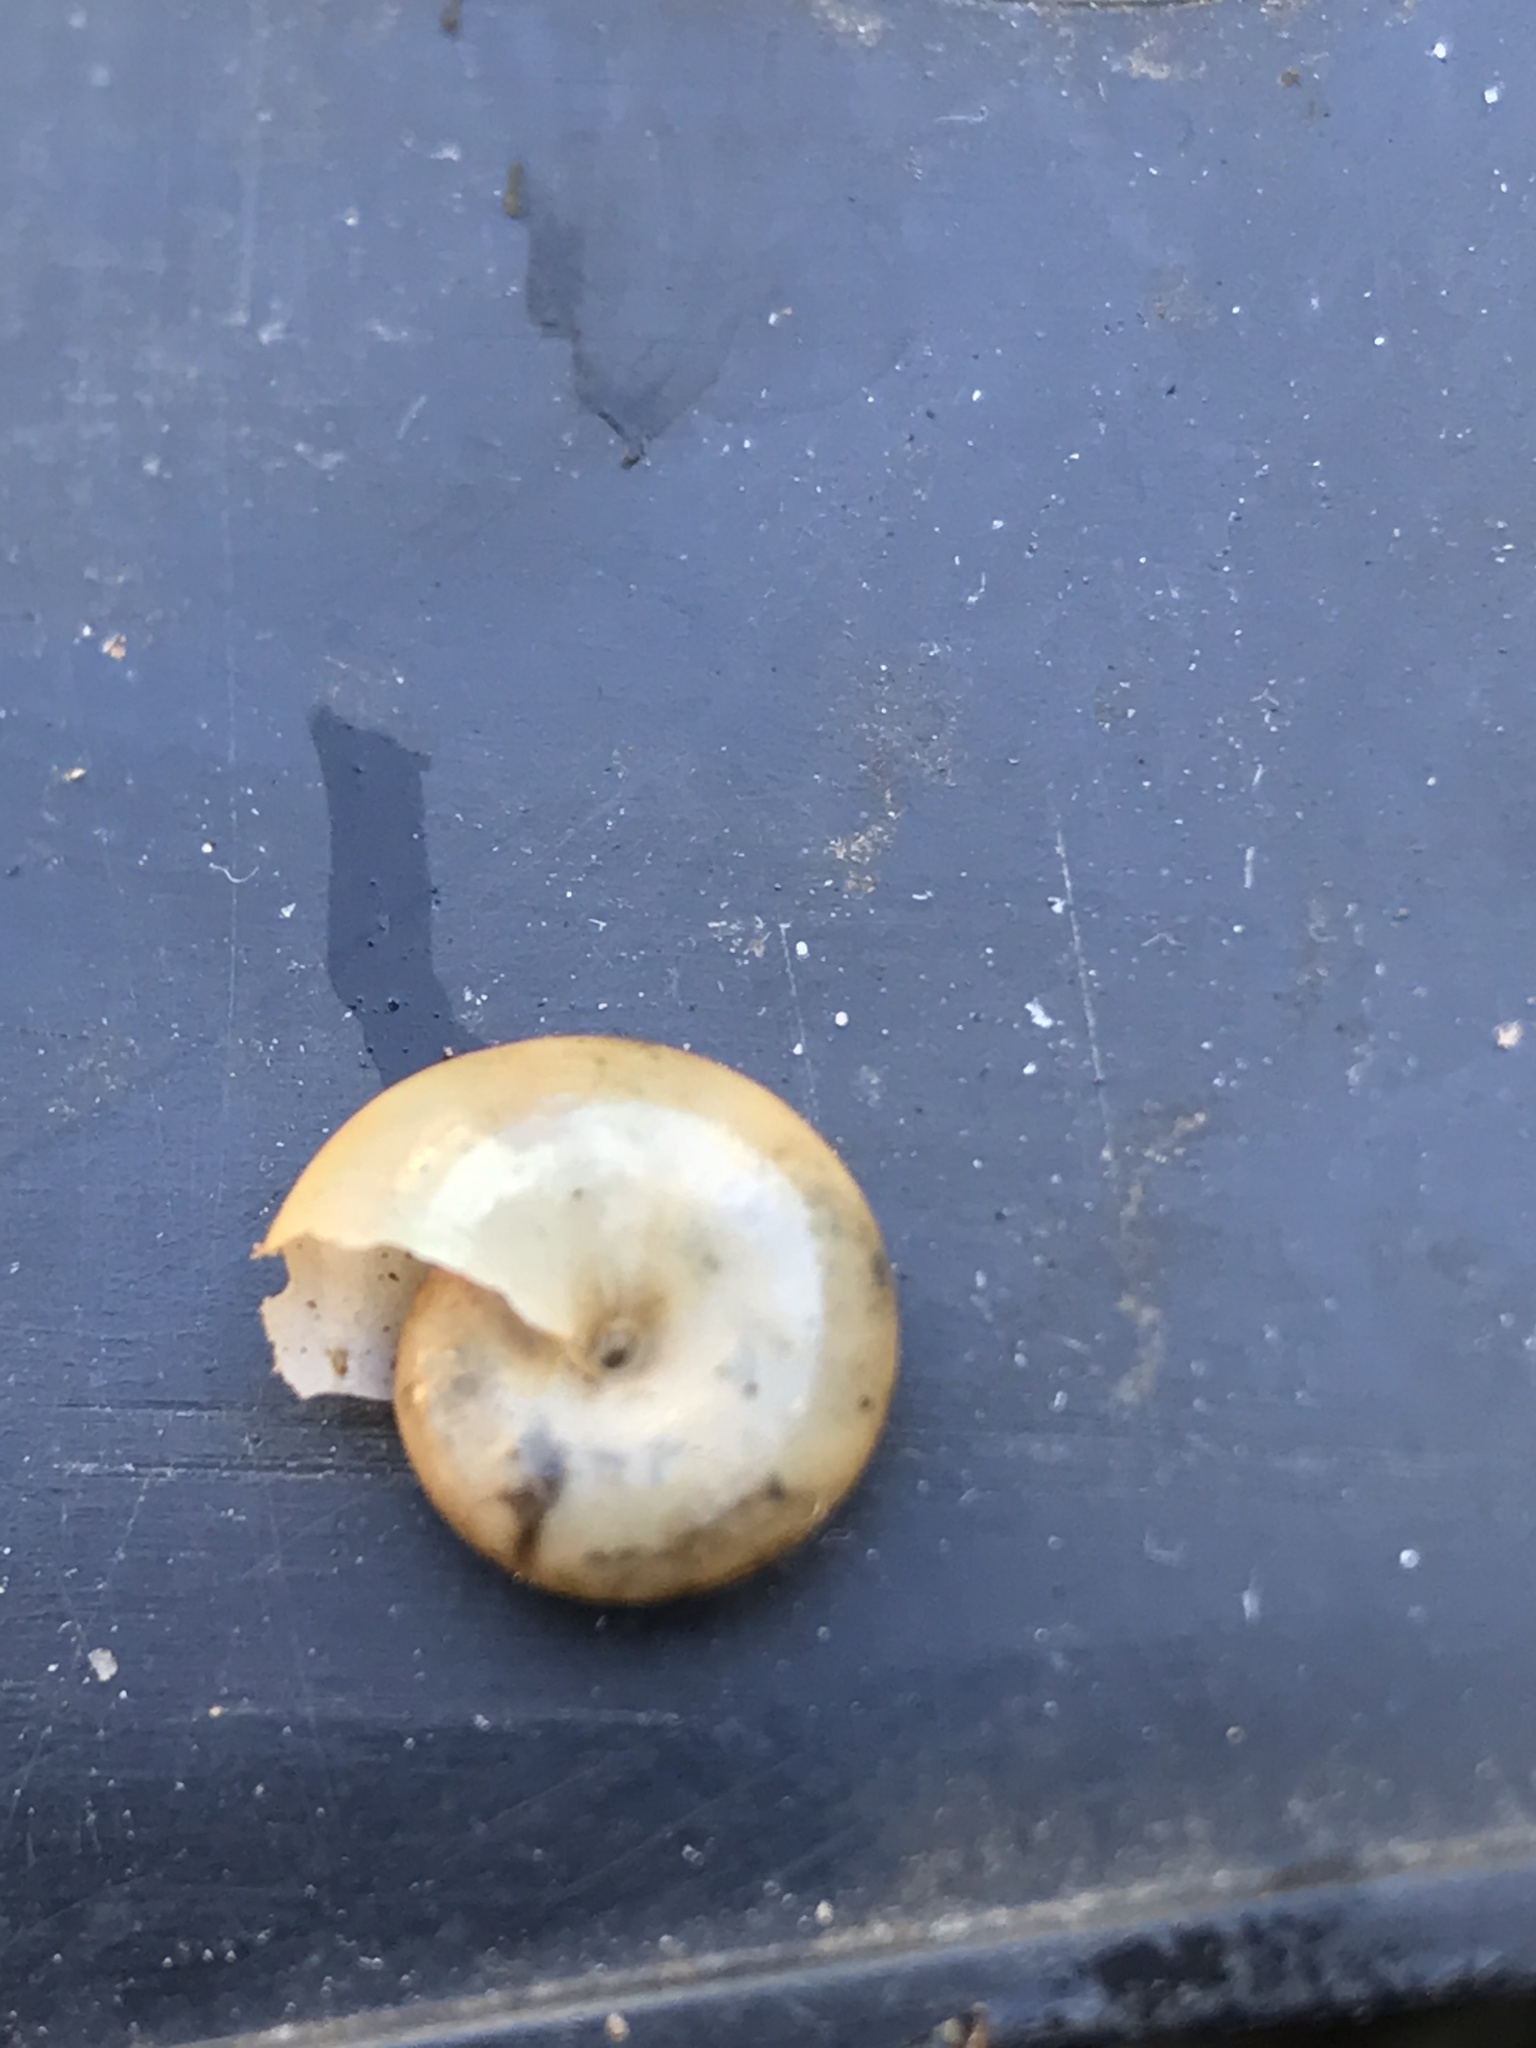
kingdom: Animalia
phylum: Mollusca
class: Gastropoda
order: Stylommatophora
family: Oxychilidae
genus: Oxychilus
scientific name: Oxychilus draparnaudi
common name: Draparnaud's glass snail
